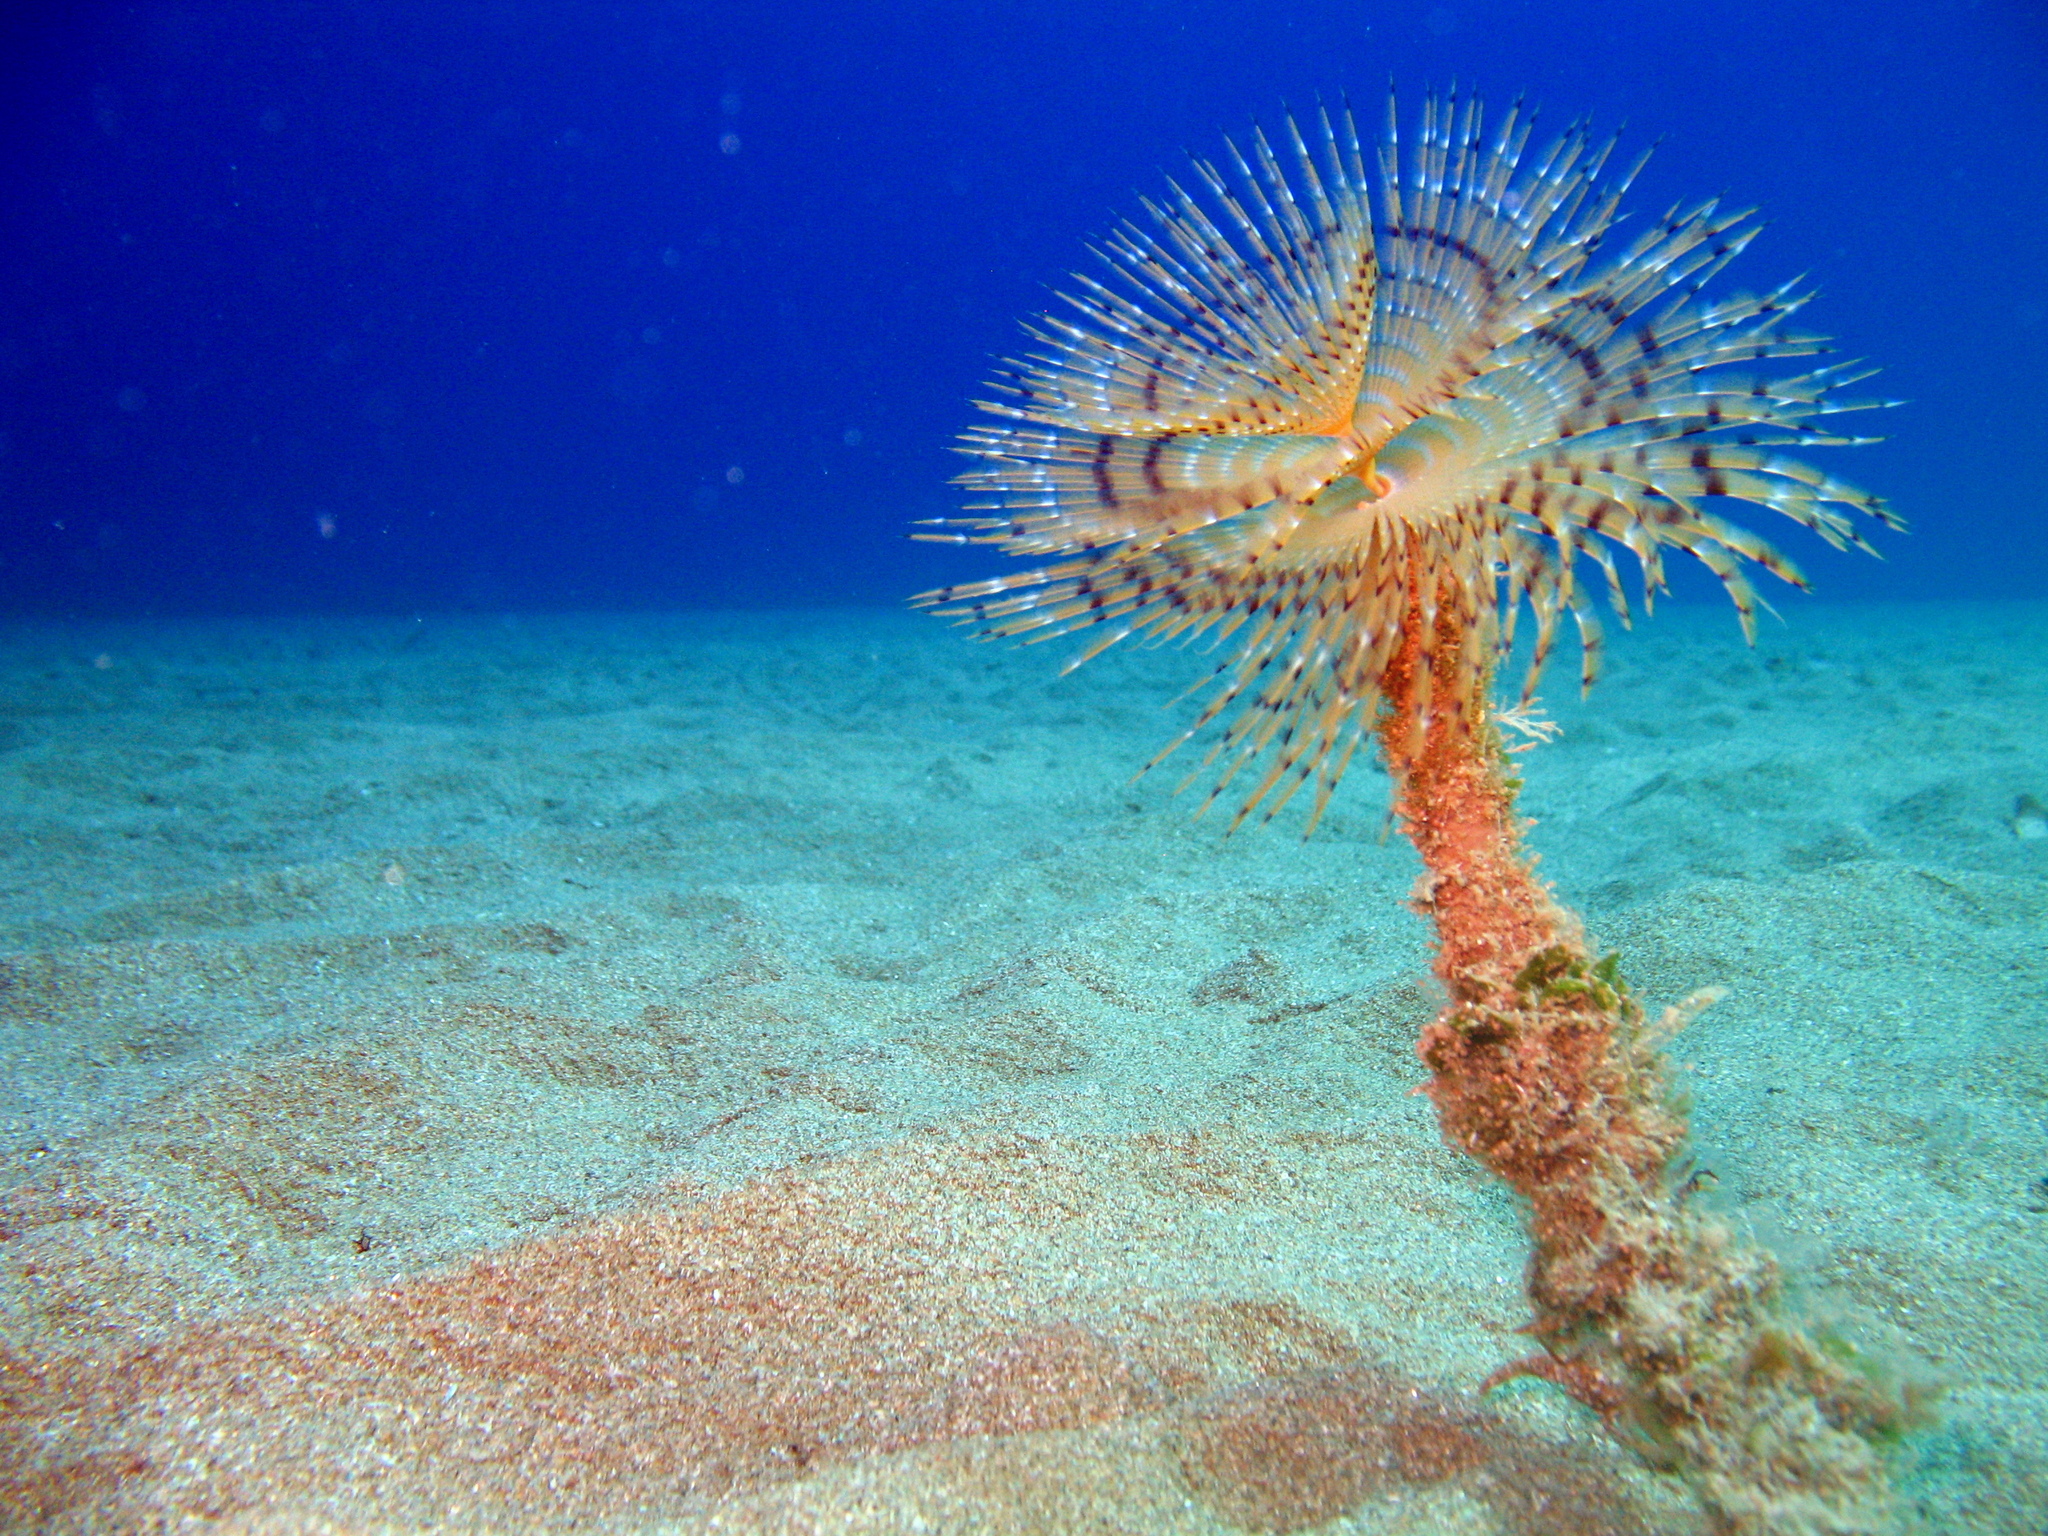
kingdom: Animalia
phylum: Annelida
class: Polychaeta
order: Sabellida
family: Sabellidae
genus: Sabella
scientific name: Sabella spallanzanii
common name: Feather duster worm
